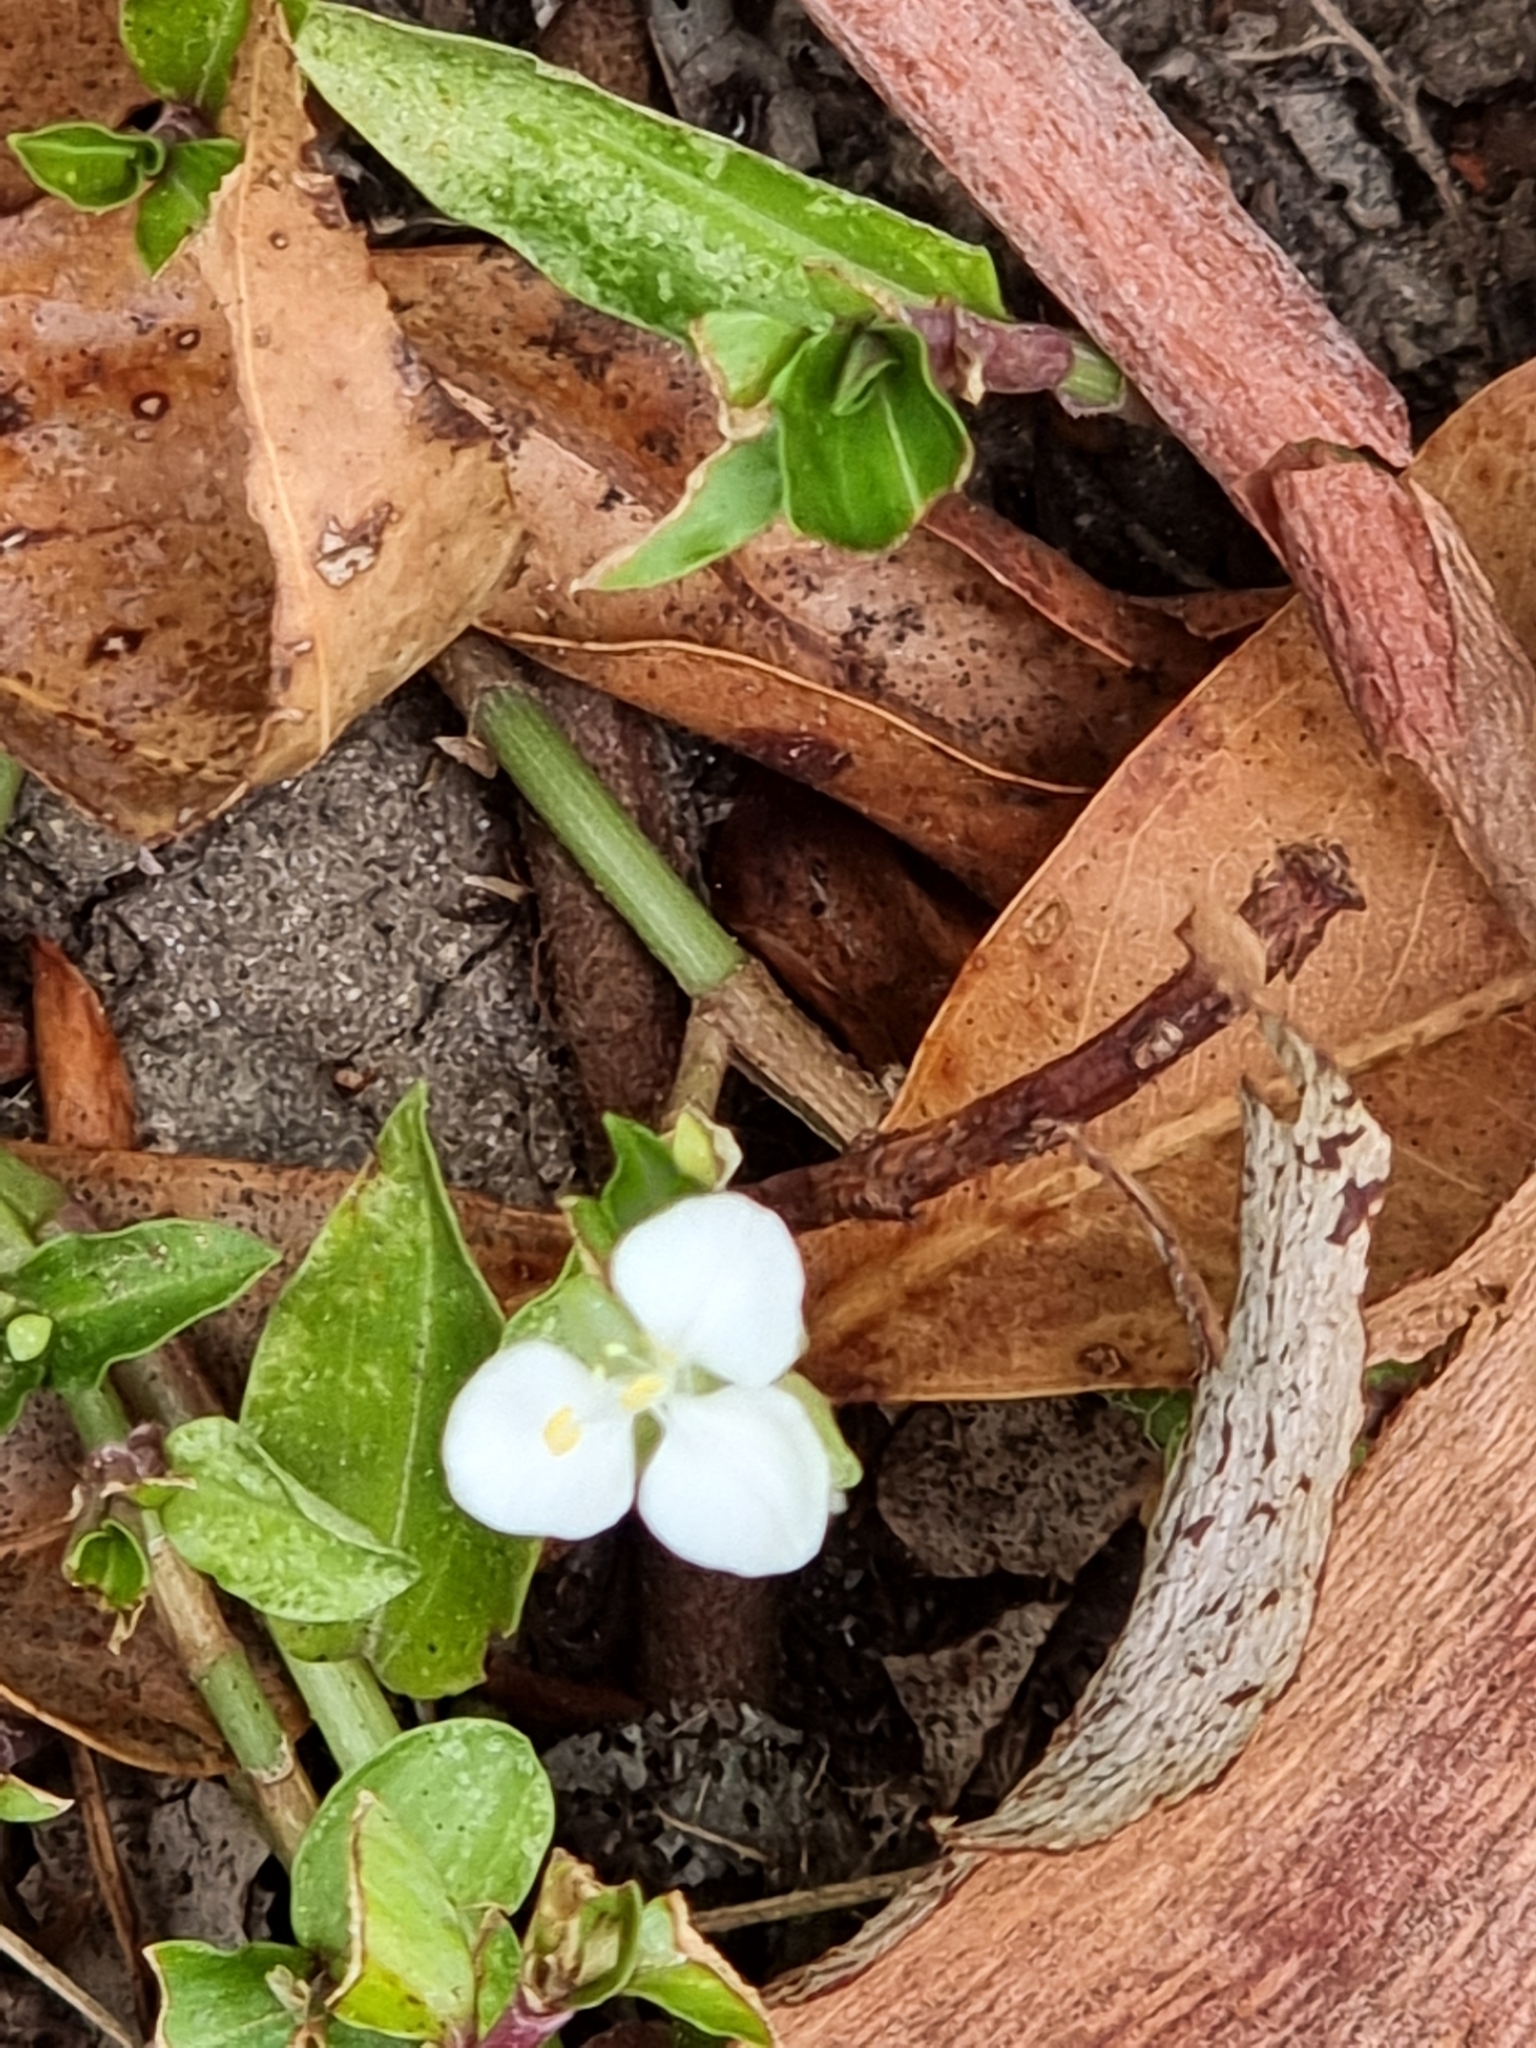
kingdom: Plantae
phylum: Tracheophyta
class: Liliopsida
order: Commelinales
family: Commelinaceae
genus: Aneilema
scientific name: Aneilema biflorum
